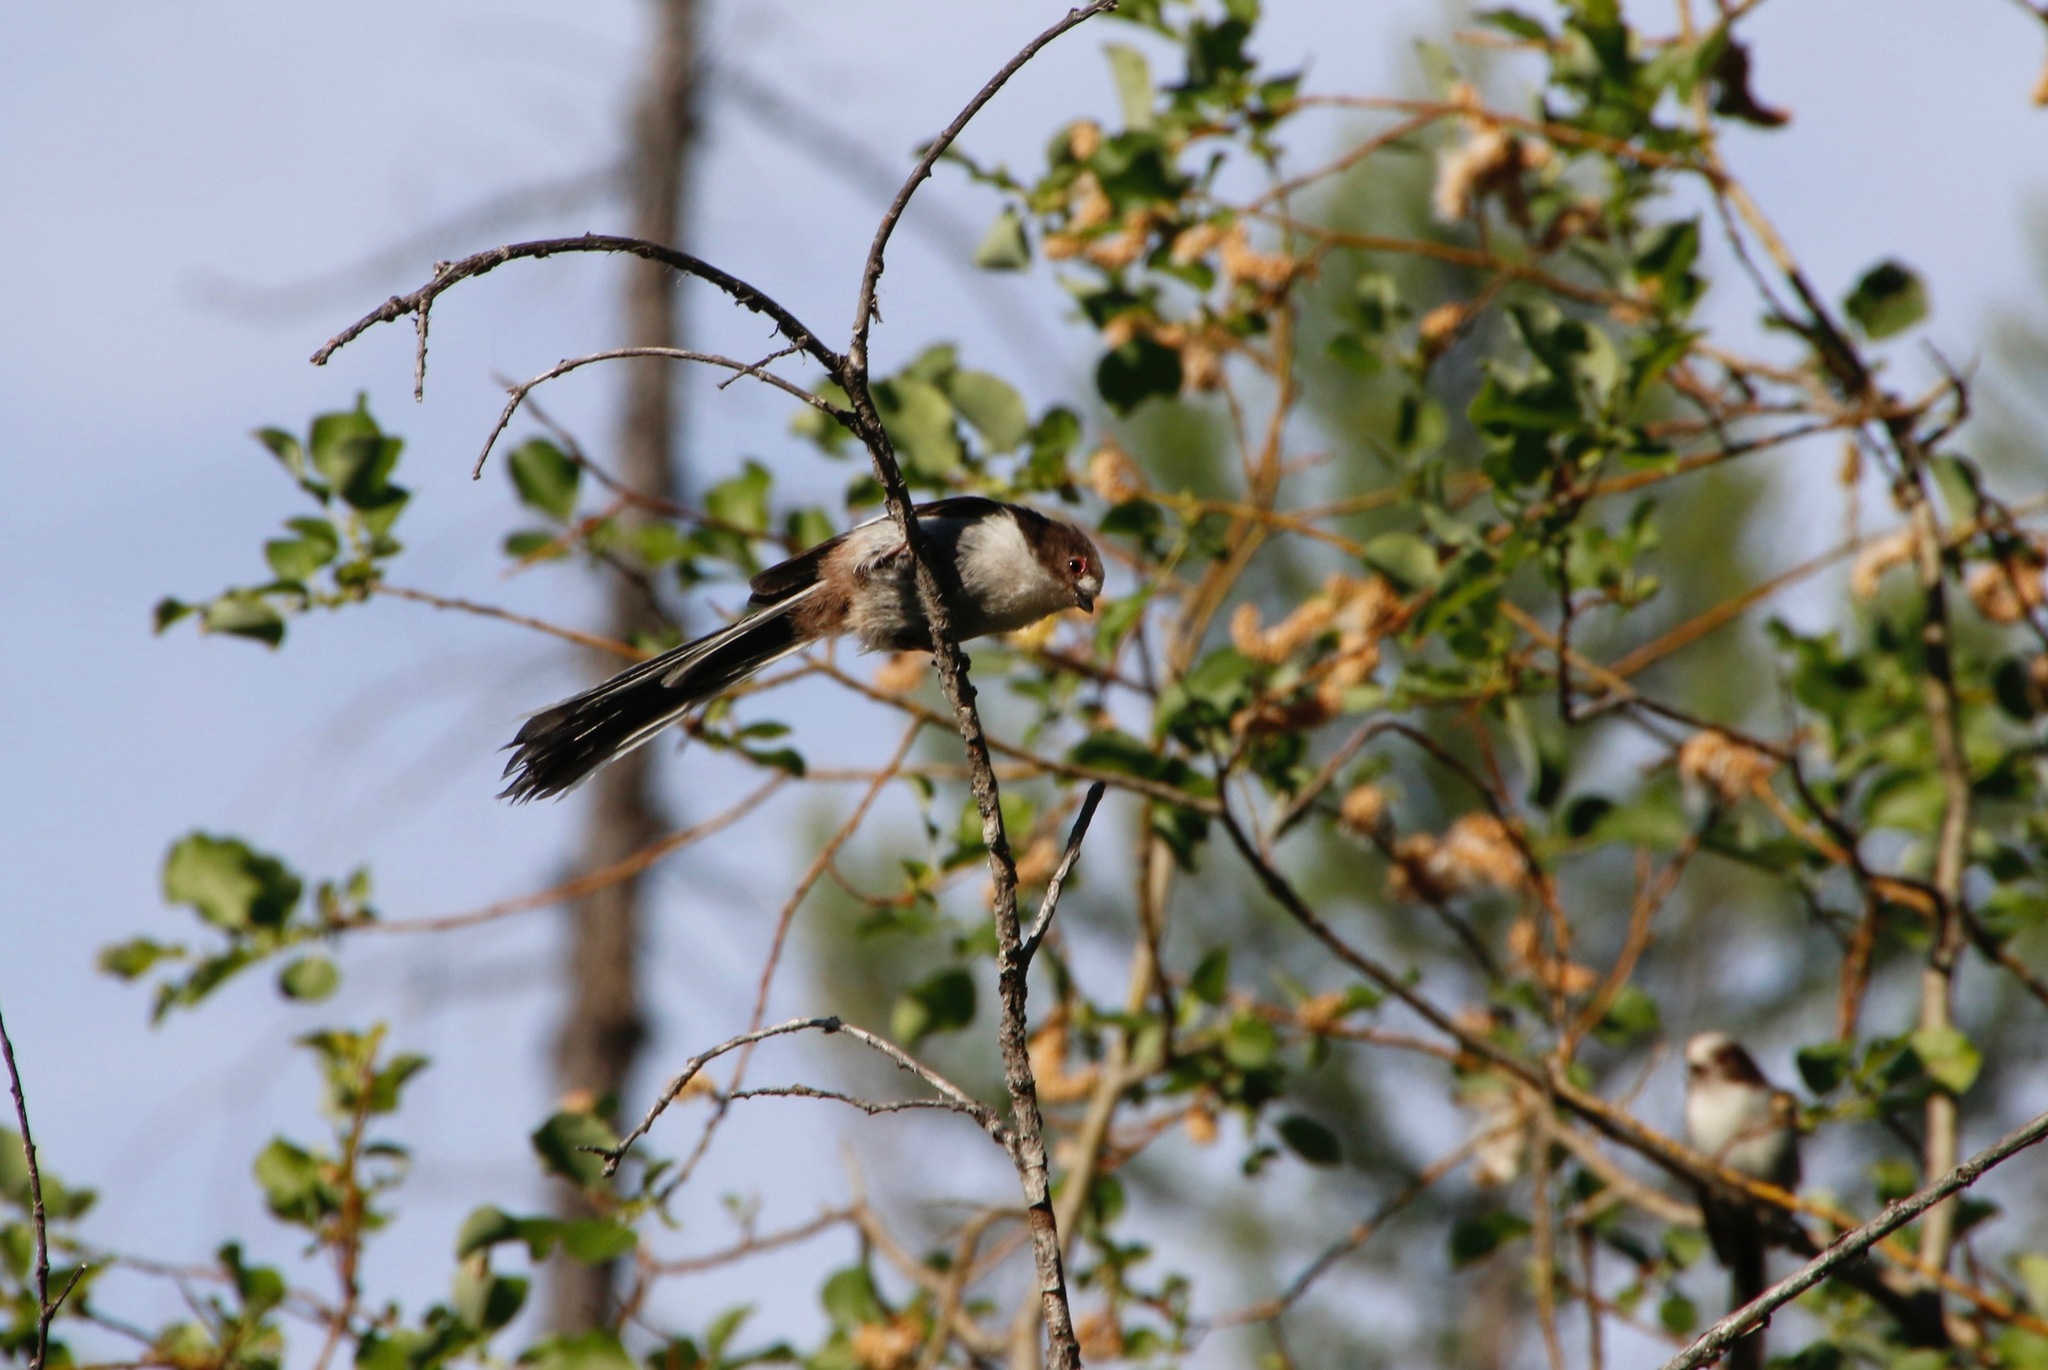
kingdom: Animalia
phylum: Chordata
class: Aves
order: Passeriformes
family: Aegithalidae
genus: Aegithalos
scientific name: Aegithalos caudatus
